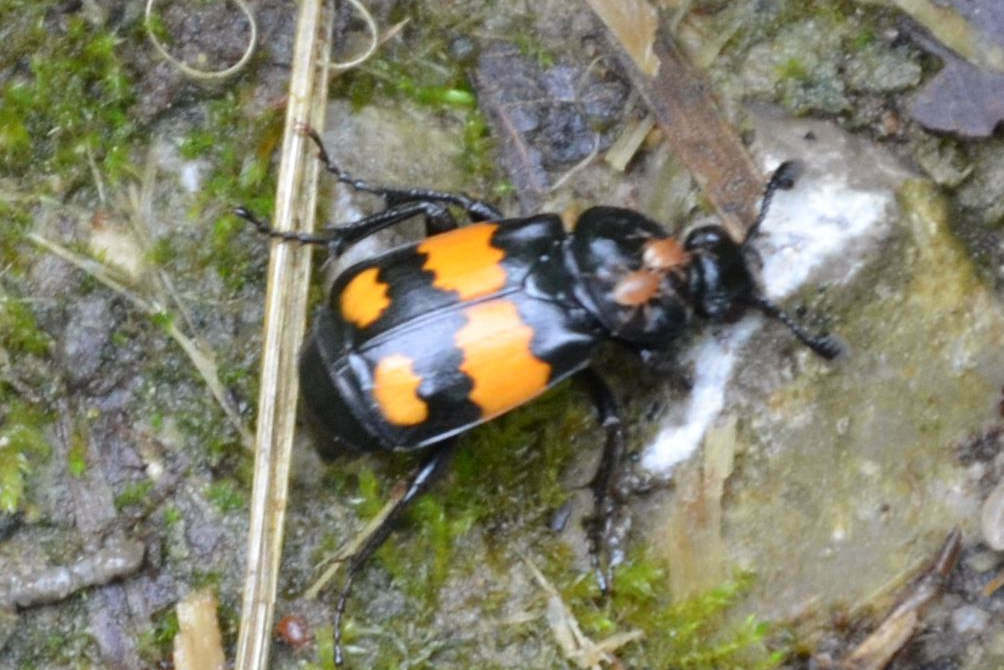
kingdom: Animalia
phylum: Arthropoda
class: Insecta
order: Coleoptera
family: Staphylinidae
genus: Nicrophorus
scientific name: Nicrophorus vespilloides
